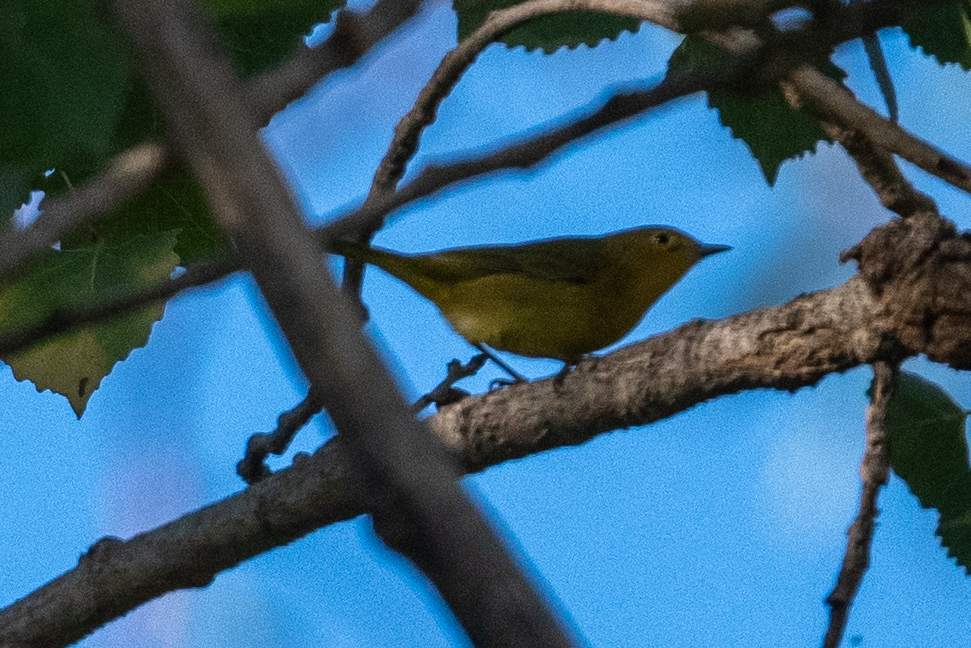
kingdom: Animalia
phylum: Chordata
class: Aves
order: Passeriformes
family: Parulidae
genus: Setophaga
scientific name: Setophaga petechia
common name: Yellow warbler
